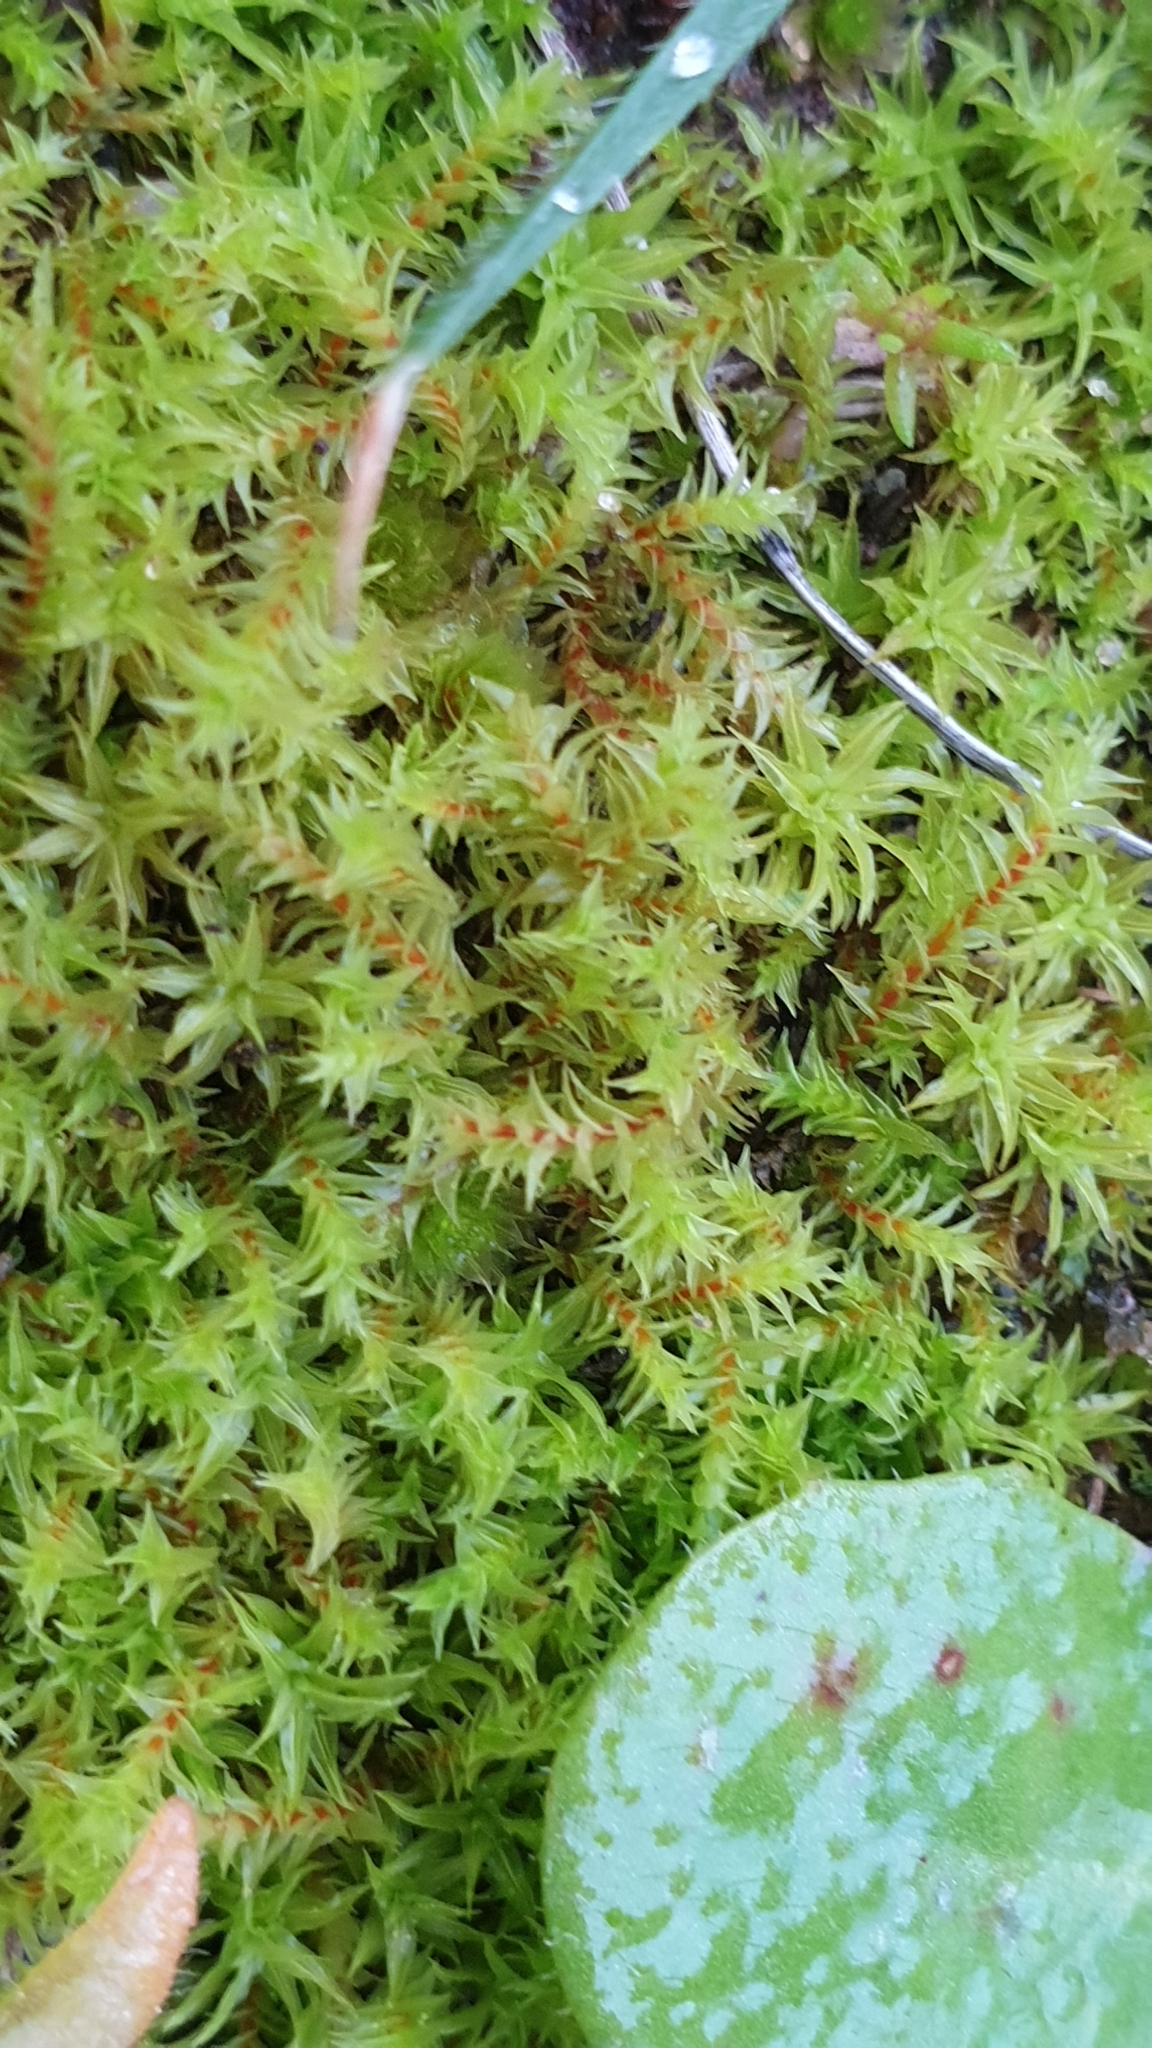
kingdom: Plantae
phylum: Bryophyta
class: Bryopsida
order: Pottiales
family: Pottiaceae
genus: Triquetrella
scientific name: Triquetrella papillata
